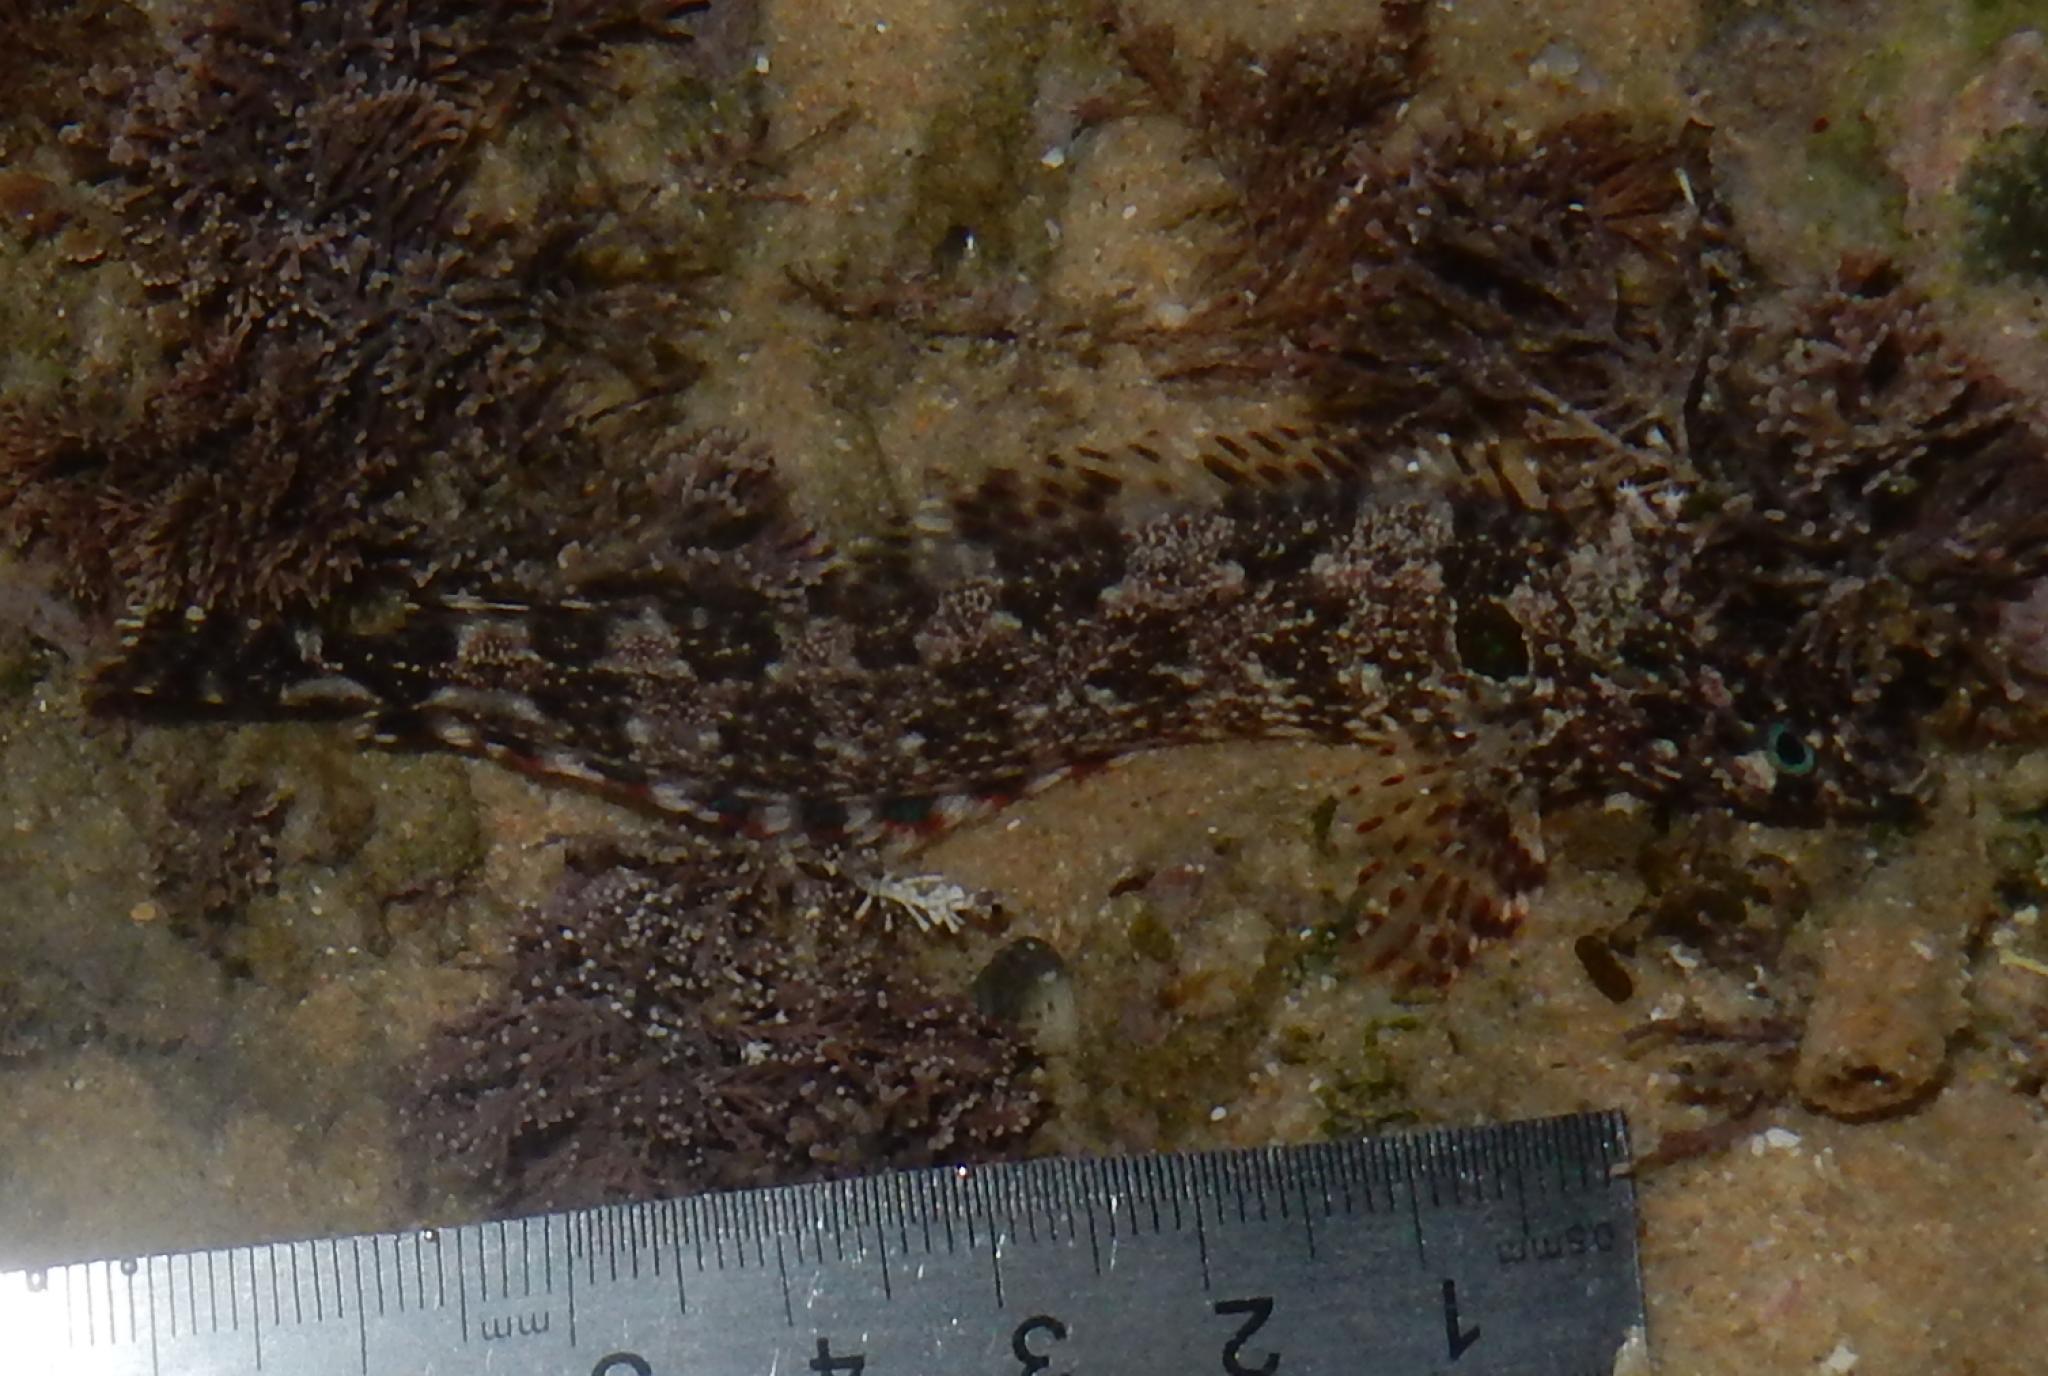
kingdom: Animalia
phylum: Chordata
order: Perciformes
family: Clinidae
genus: Blennioclinus
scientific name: Blennioclinus brachycephalus
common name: Lace klipfish
